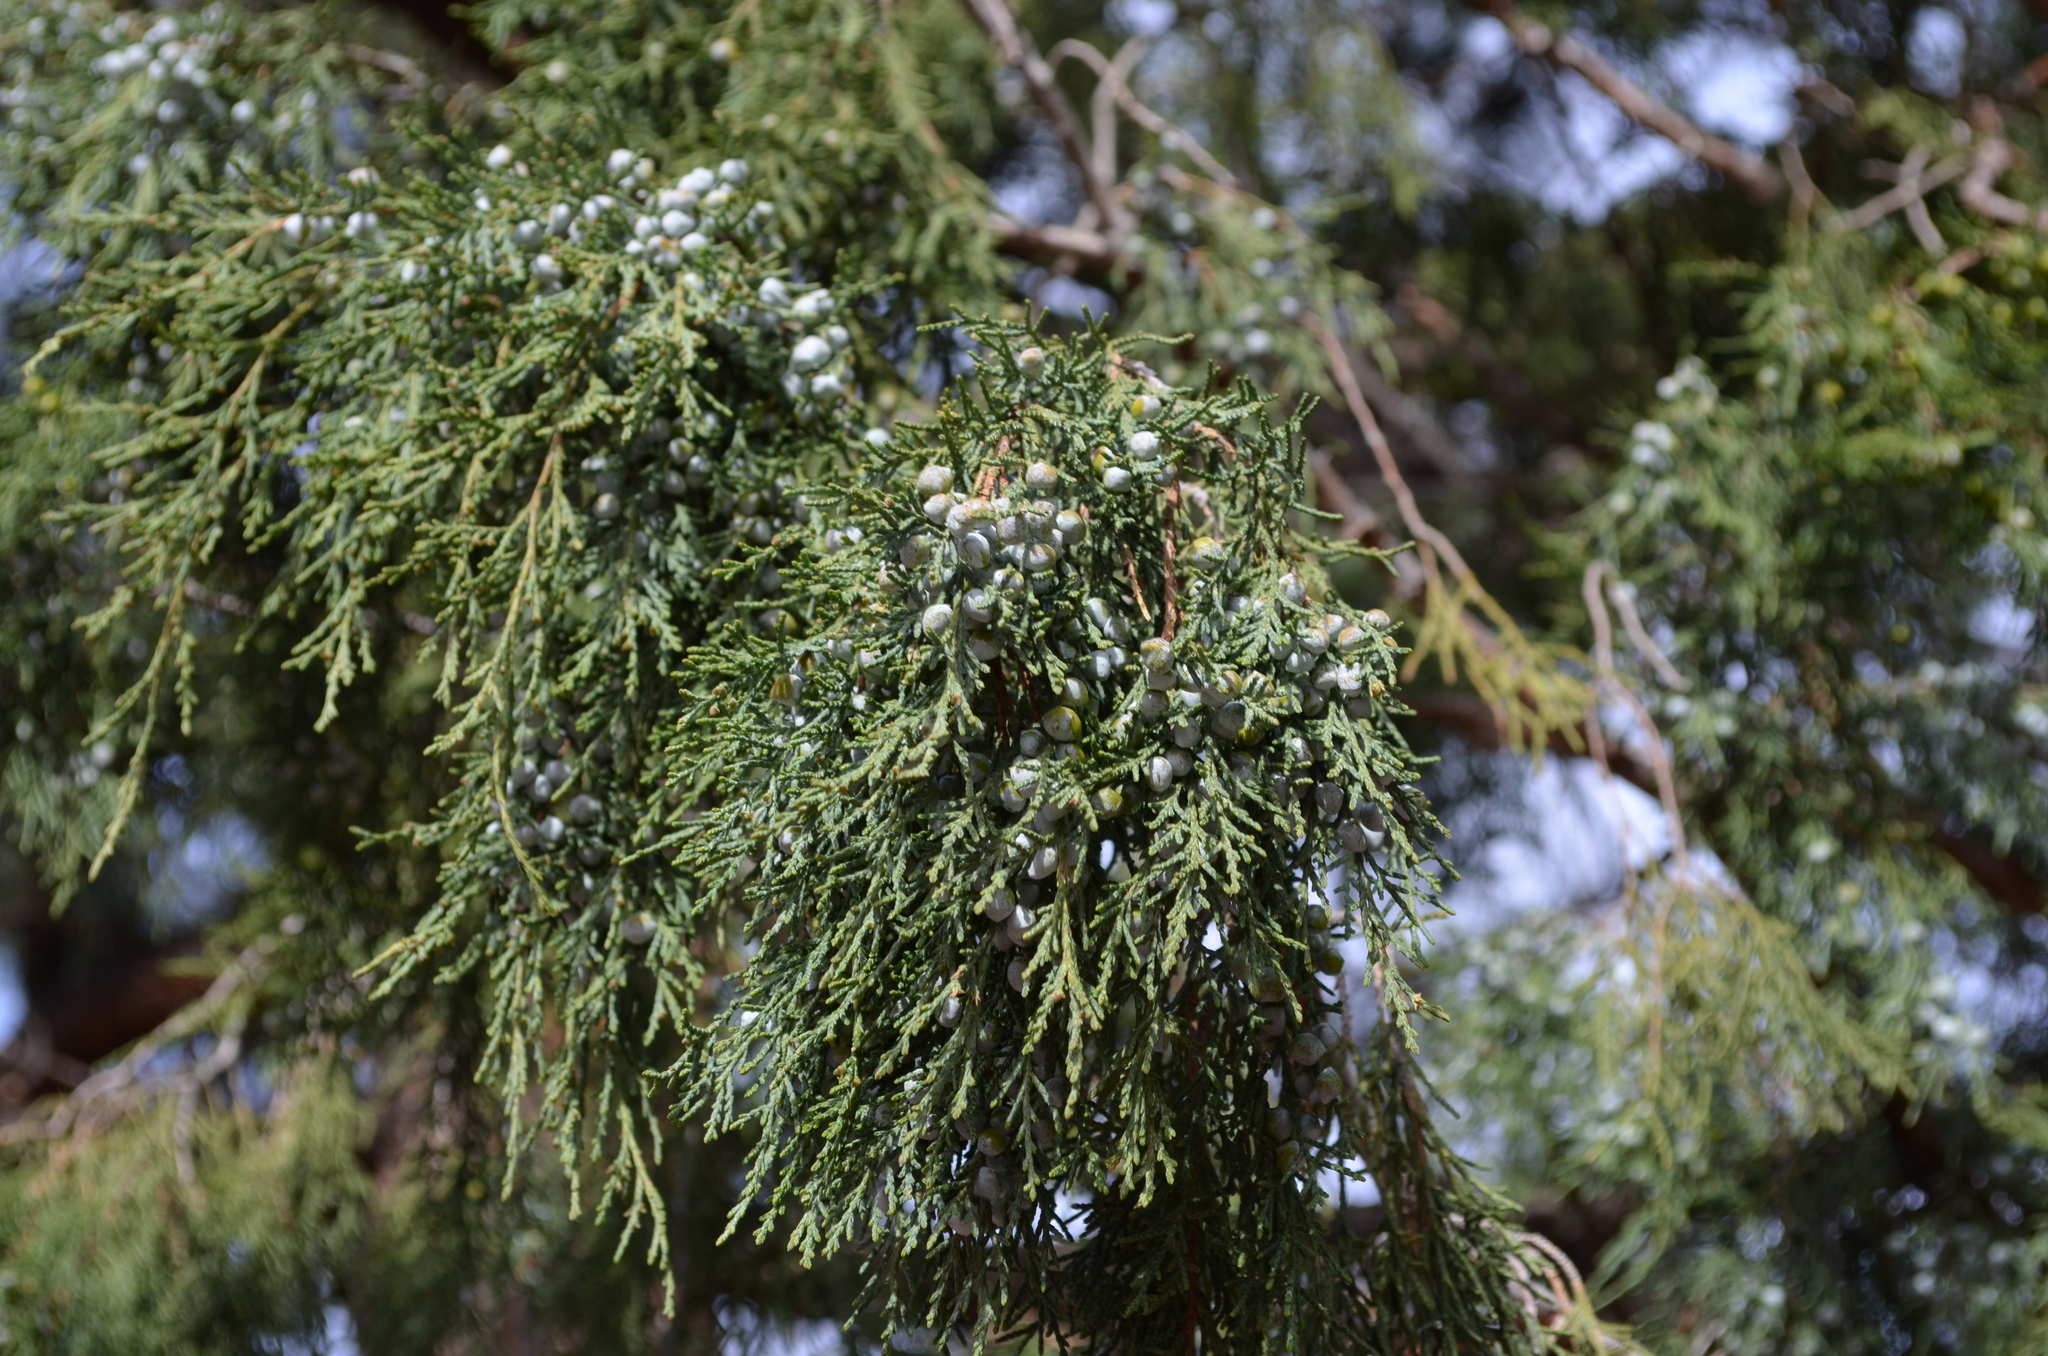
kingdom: Plantae
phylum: Tracheophyta
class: Pinopsida
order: Pinales
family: Cupressaceae
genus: Juniperus
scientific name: Juniperus scopulorum
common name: Rocky mountain juniper
